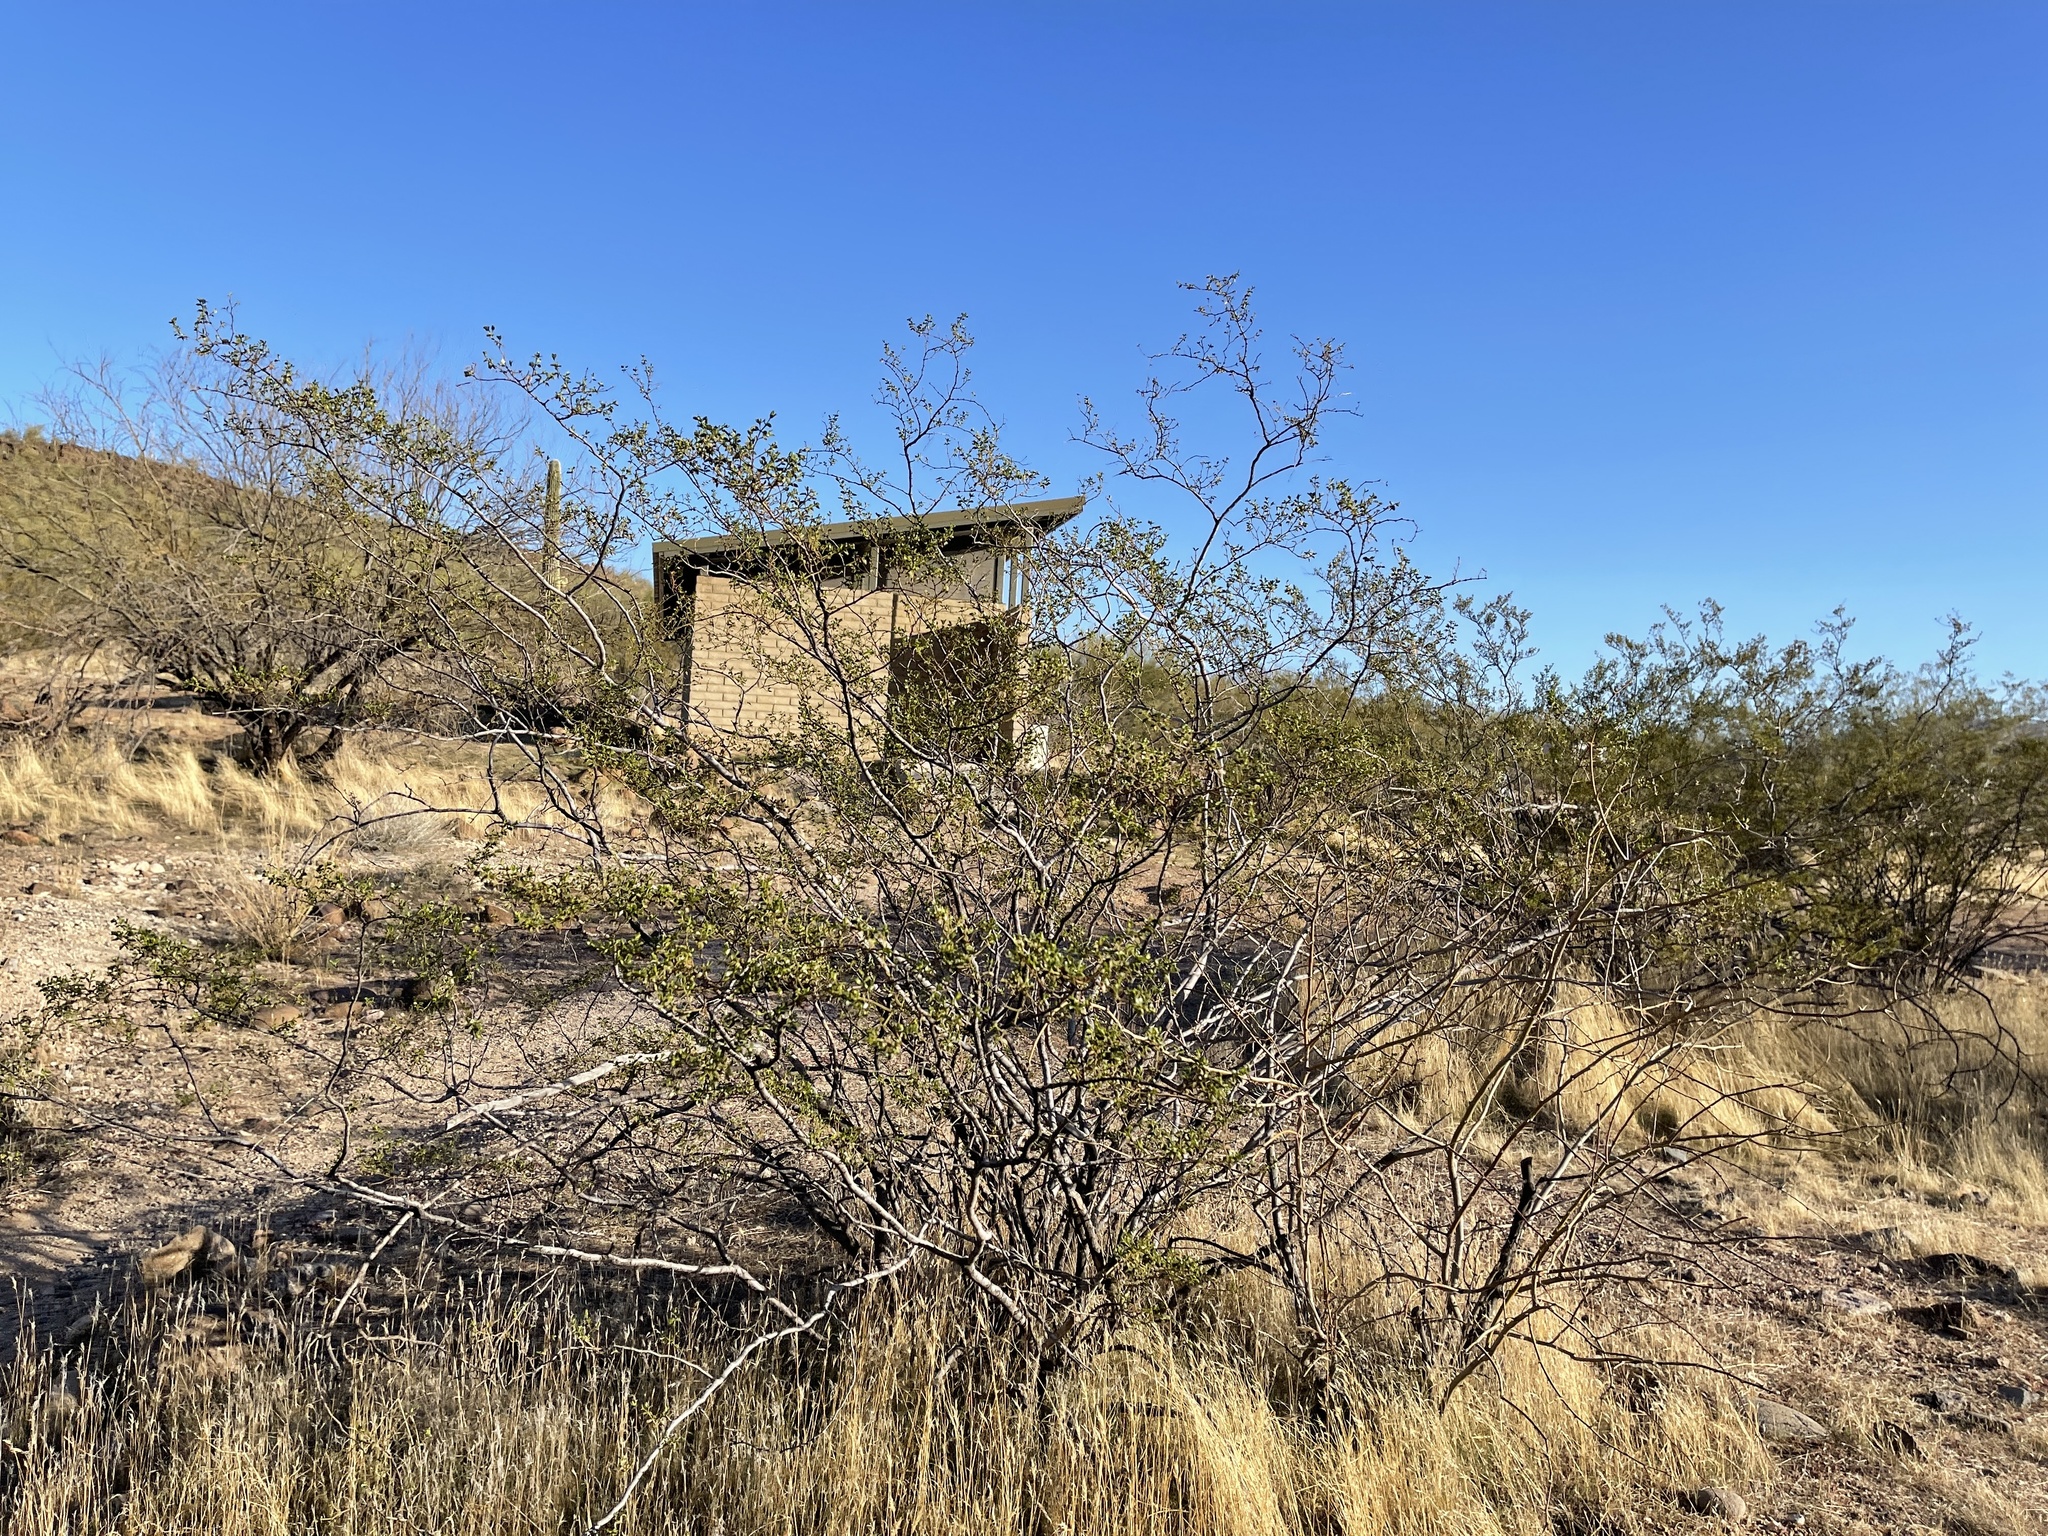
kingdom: Plantae
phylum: Tracheophyta
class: Magnoliopsida
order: Zygophyllales
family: Zygophyllaceae
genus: Larrea
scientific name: Larrea tridentata
